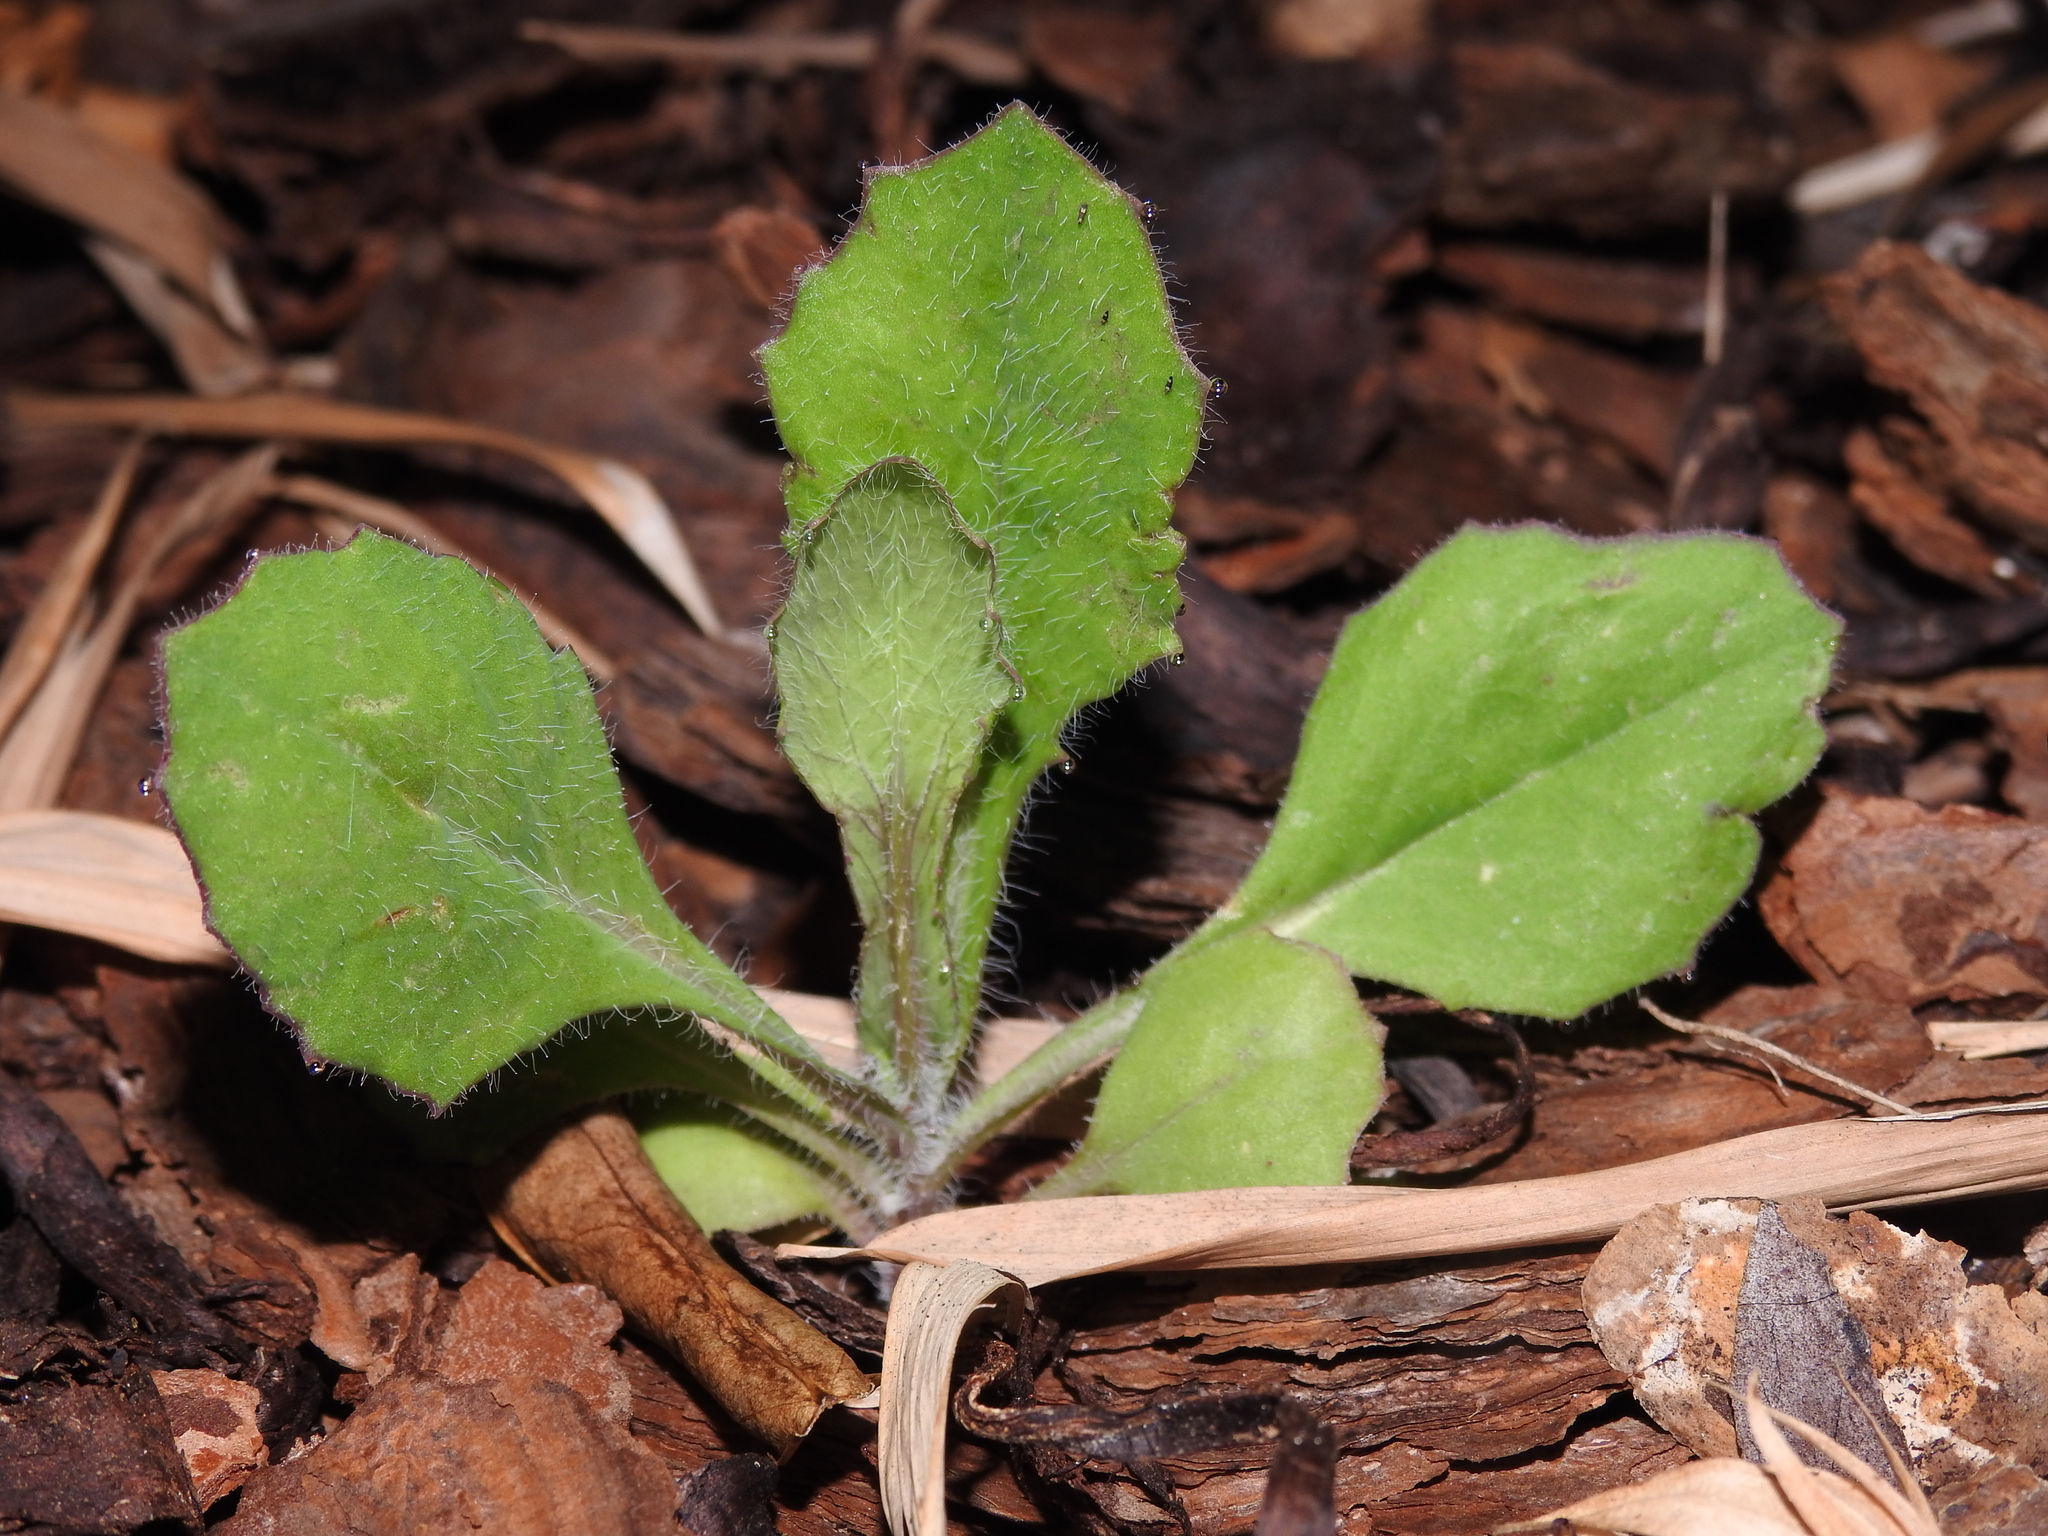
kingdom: Plantae
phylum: Tracheophyta
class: Magnoliopsida
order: Asterales
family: Asteraceae
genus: Emilia
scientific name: Emilia sonchifolia
